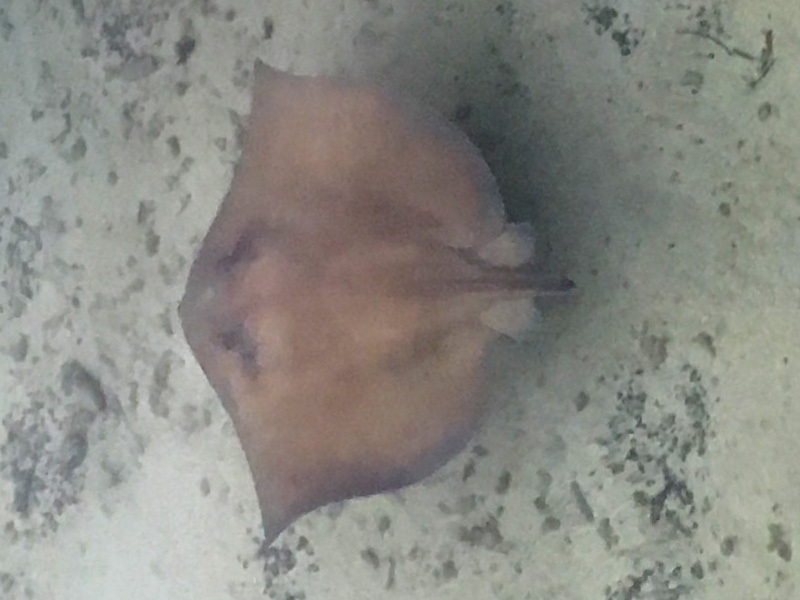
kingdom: Animalia
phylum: Chordata
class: Elasmobranchii
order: Myliobatiformes
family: Dasyatidae
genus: Hypanus
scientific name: Hypanus americanus
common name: Southern stingray
